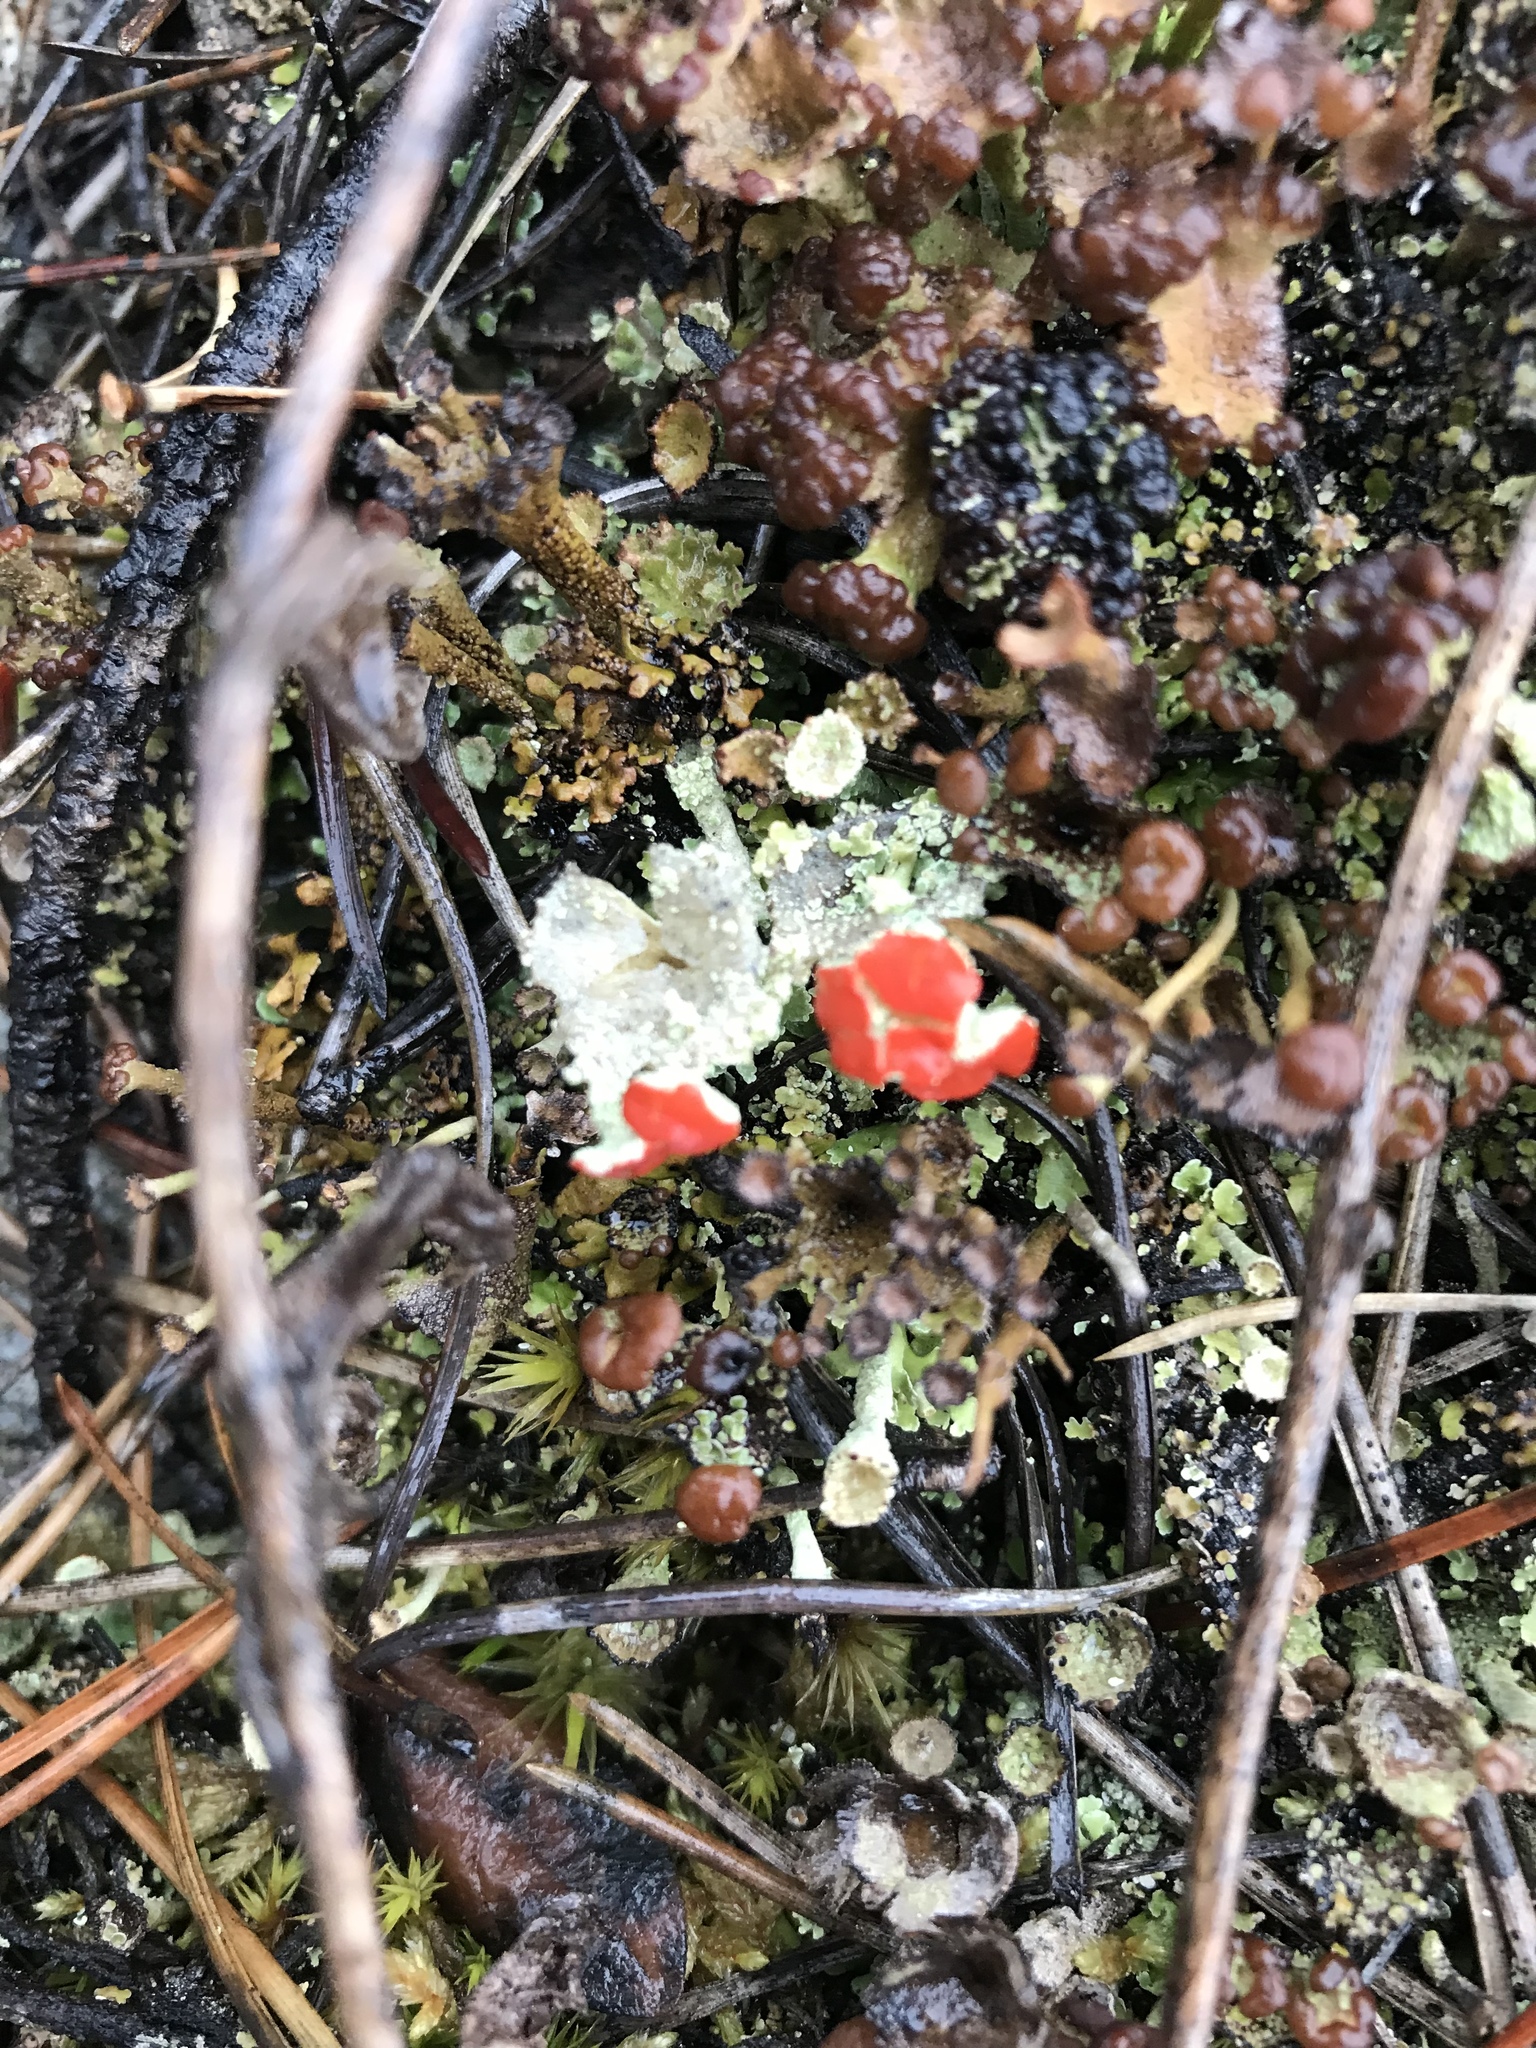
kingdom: Fungi
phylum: Ascomycota
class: Lecanoromycetes
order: Lecanorales
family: Cladoniaceae
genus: Cladonia
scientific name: Cladonia cristatella
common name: British soldier lichen
